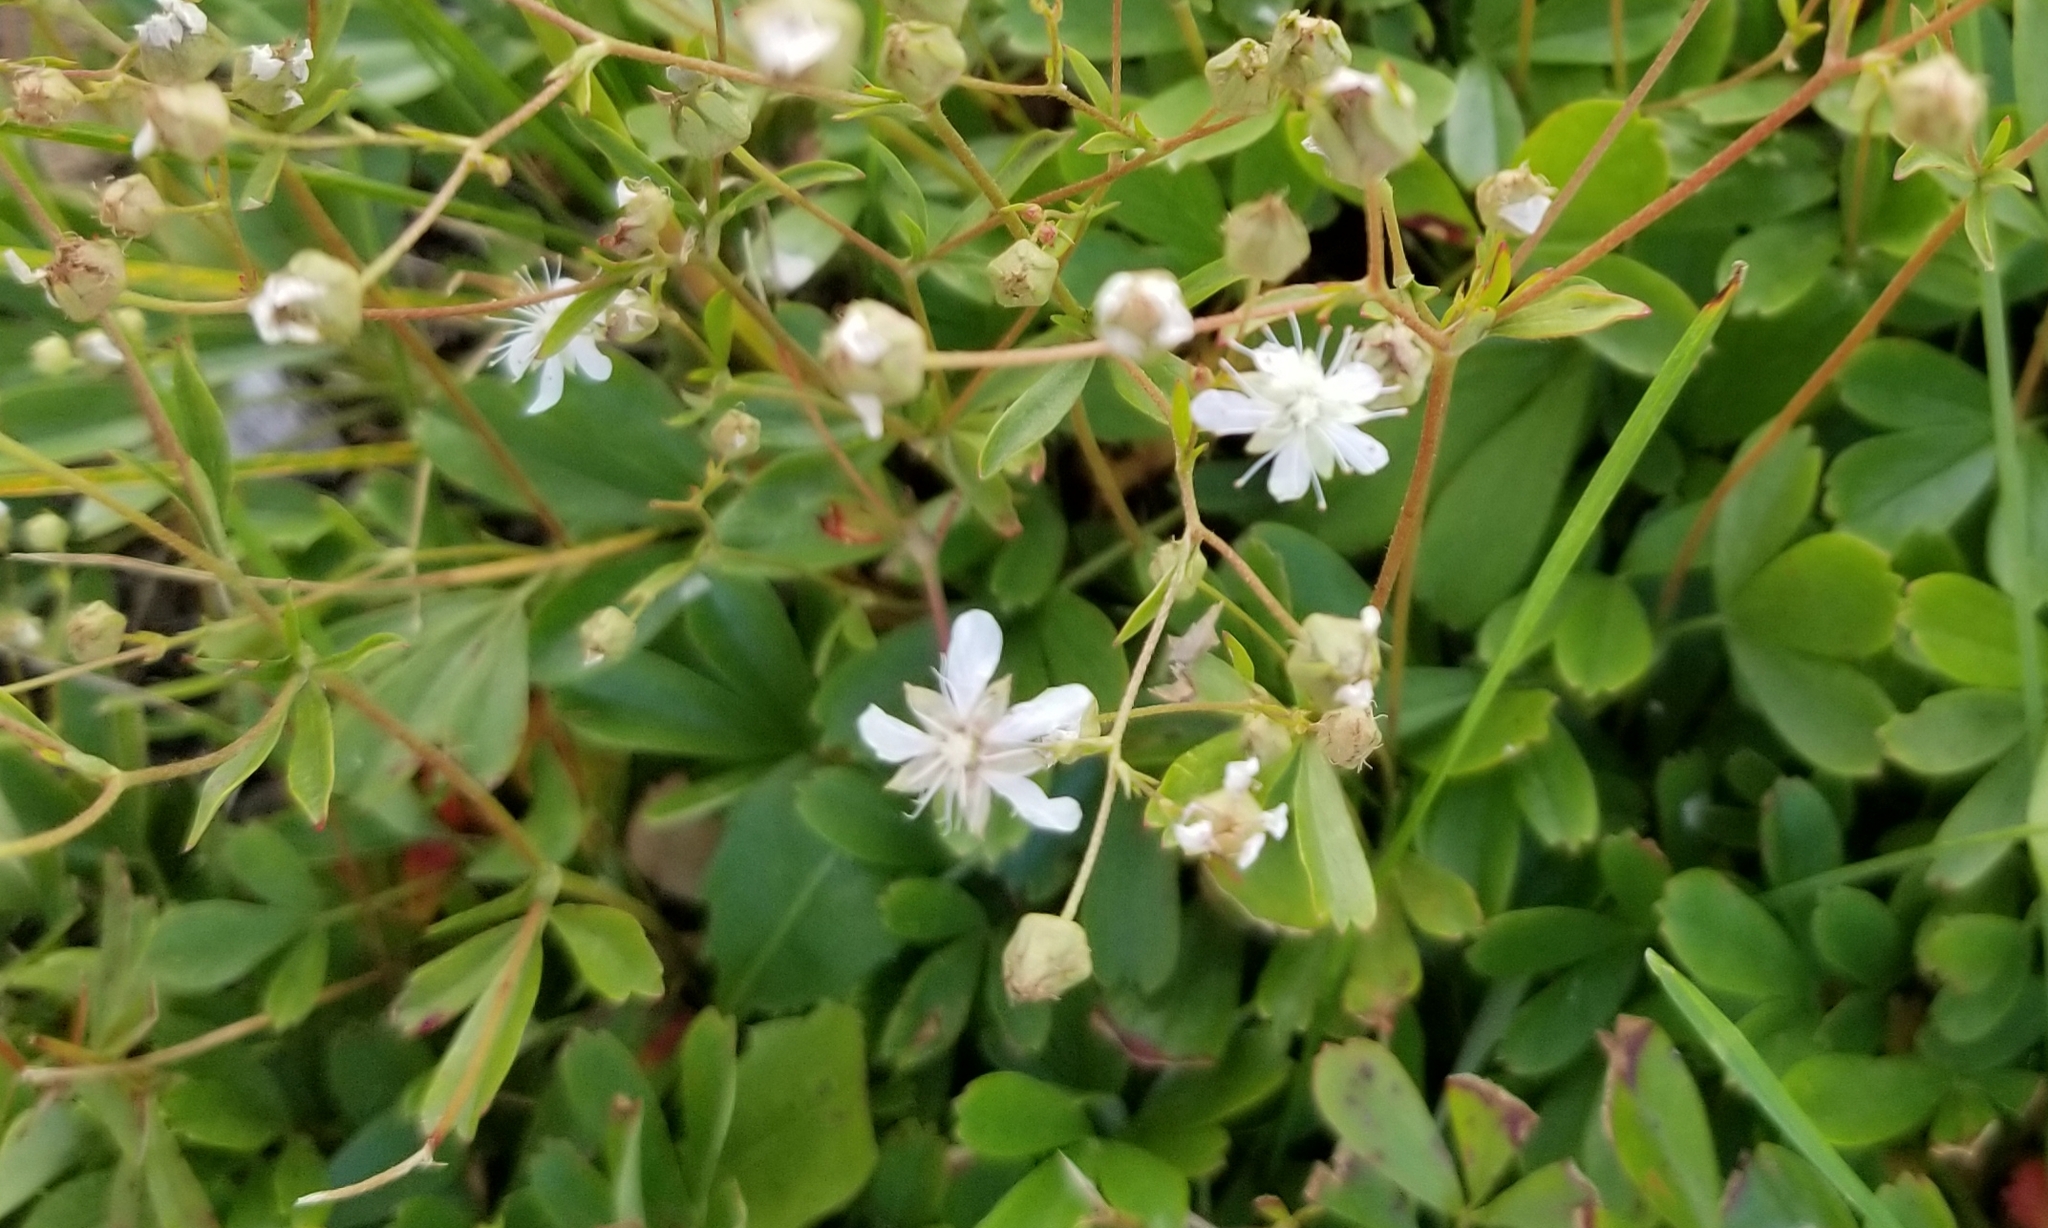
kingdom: Plantae
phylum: Tracheophyta
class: Magnoliopsida
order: Rosales
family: Rosaceae
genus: Sibbaldia
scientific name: Sibbaldia tridentata
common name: Three-toothed cinquefoil
